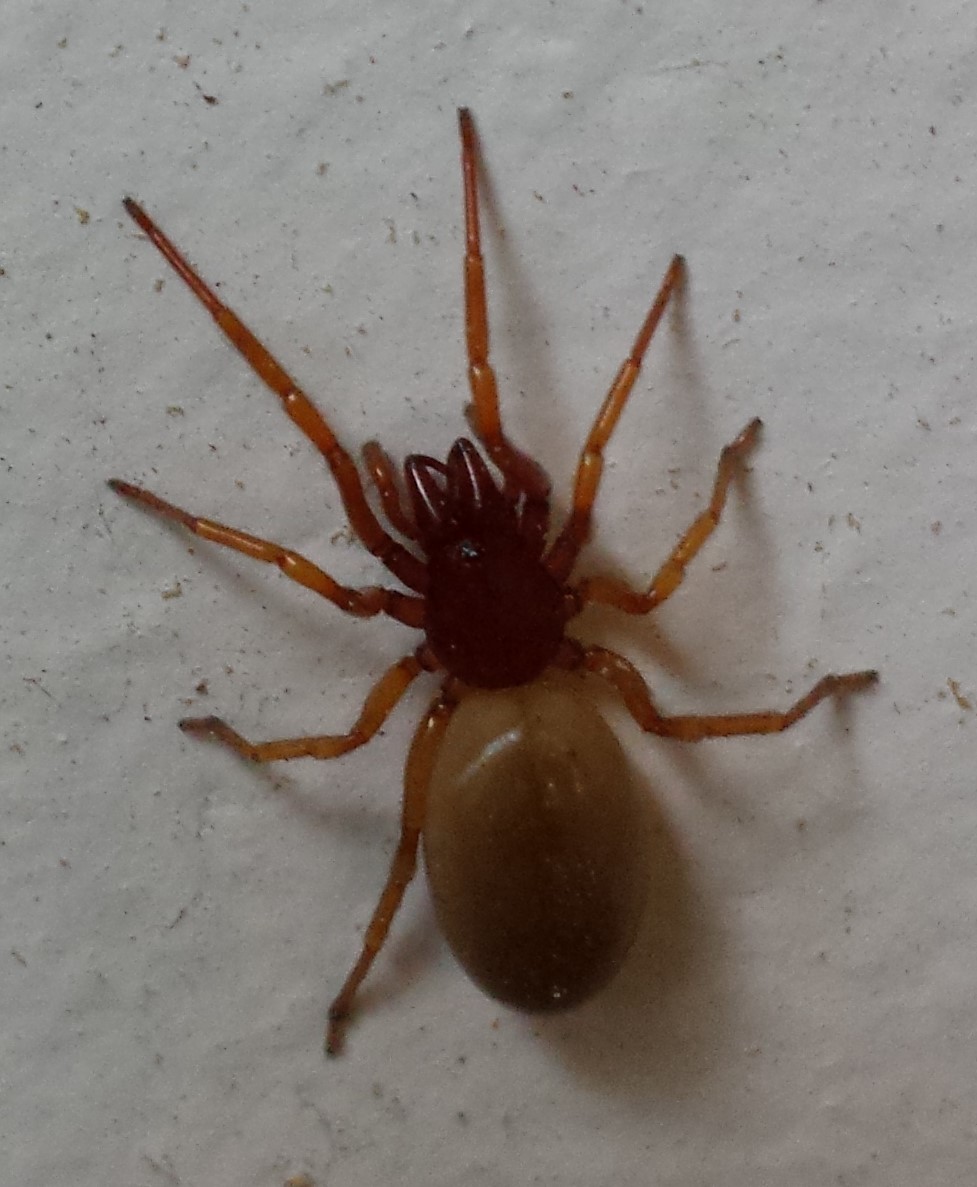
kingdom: Animalia
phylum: Arthropoda
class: Arachnida
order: Araneae
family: Dysderidae
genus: Dysdera
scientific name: Dysdera crocata
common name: Woodlouse spider
